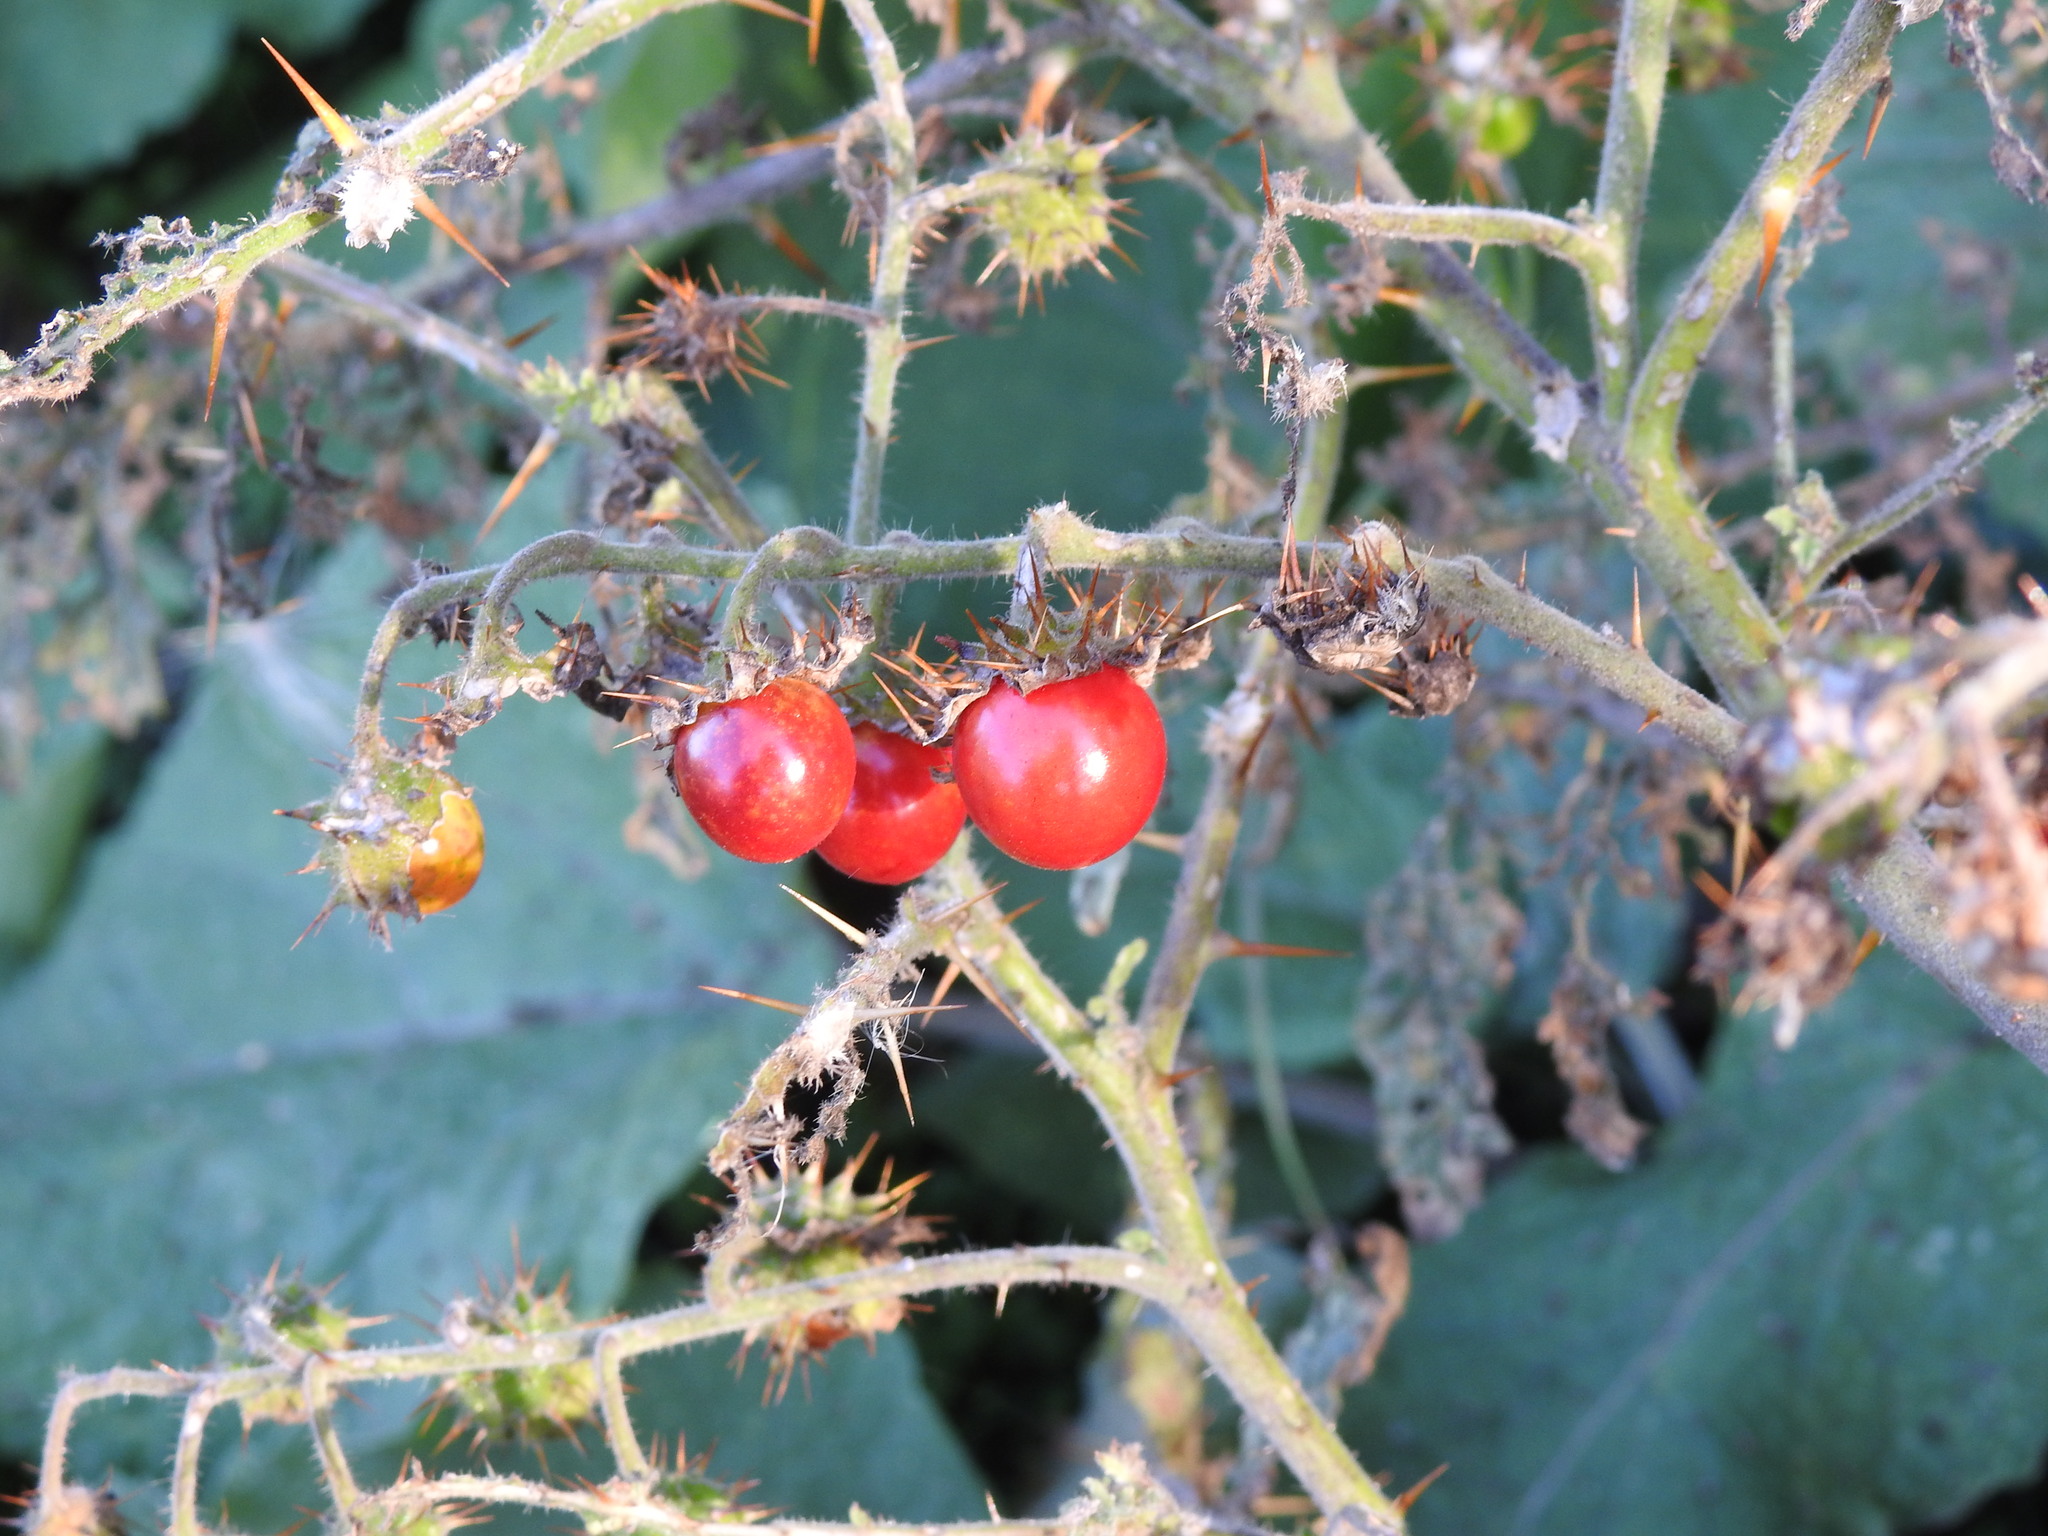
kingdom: Plantae
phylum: Tracheophyta
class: Magnoliopsida
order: Solanales
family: Solanaceae
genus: Solanum
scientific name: Solanum sisymbriifolium
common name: Red buffalo-bur
